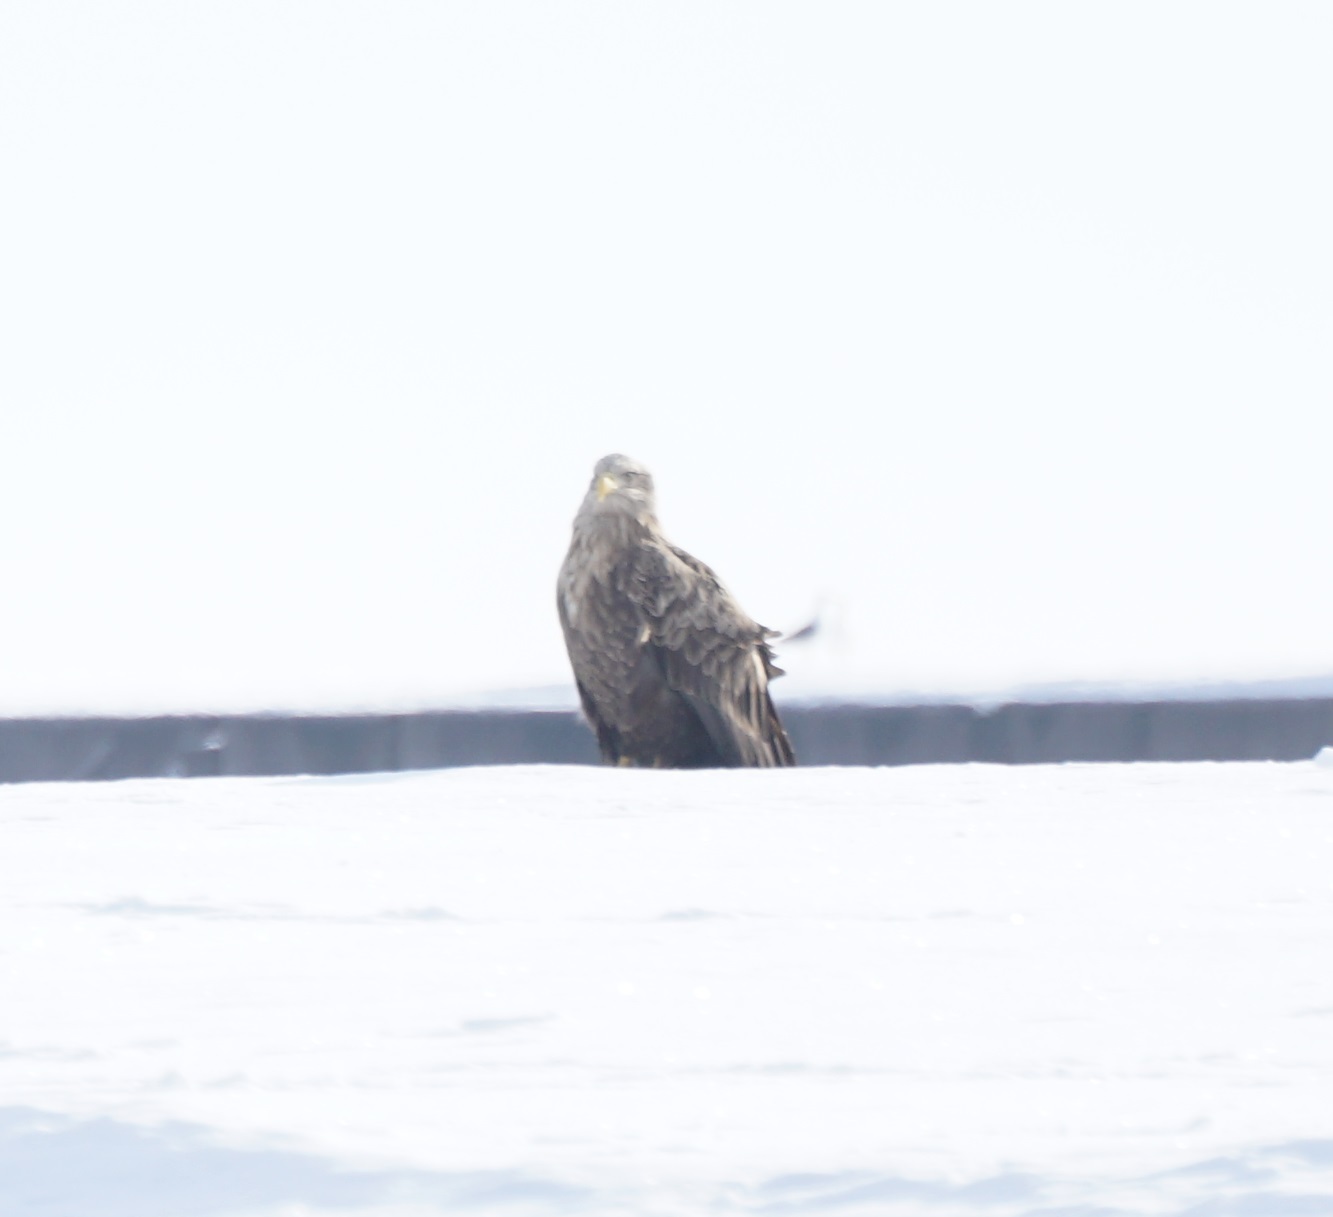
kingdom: Animalia
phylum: Chordata
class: Aves
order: Accipitriformes
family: Accipitridae
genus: Haliaeetus
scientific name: Haliaeetus albicilla
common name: White-tailed eagle
